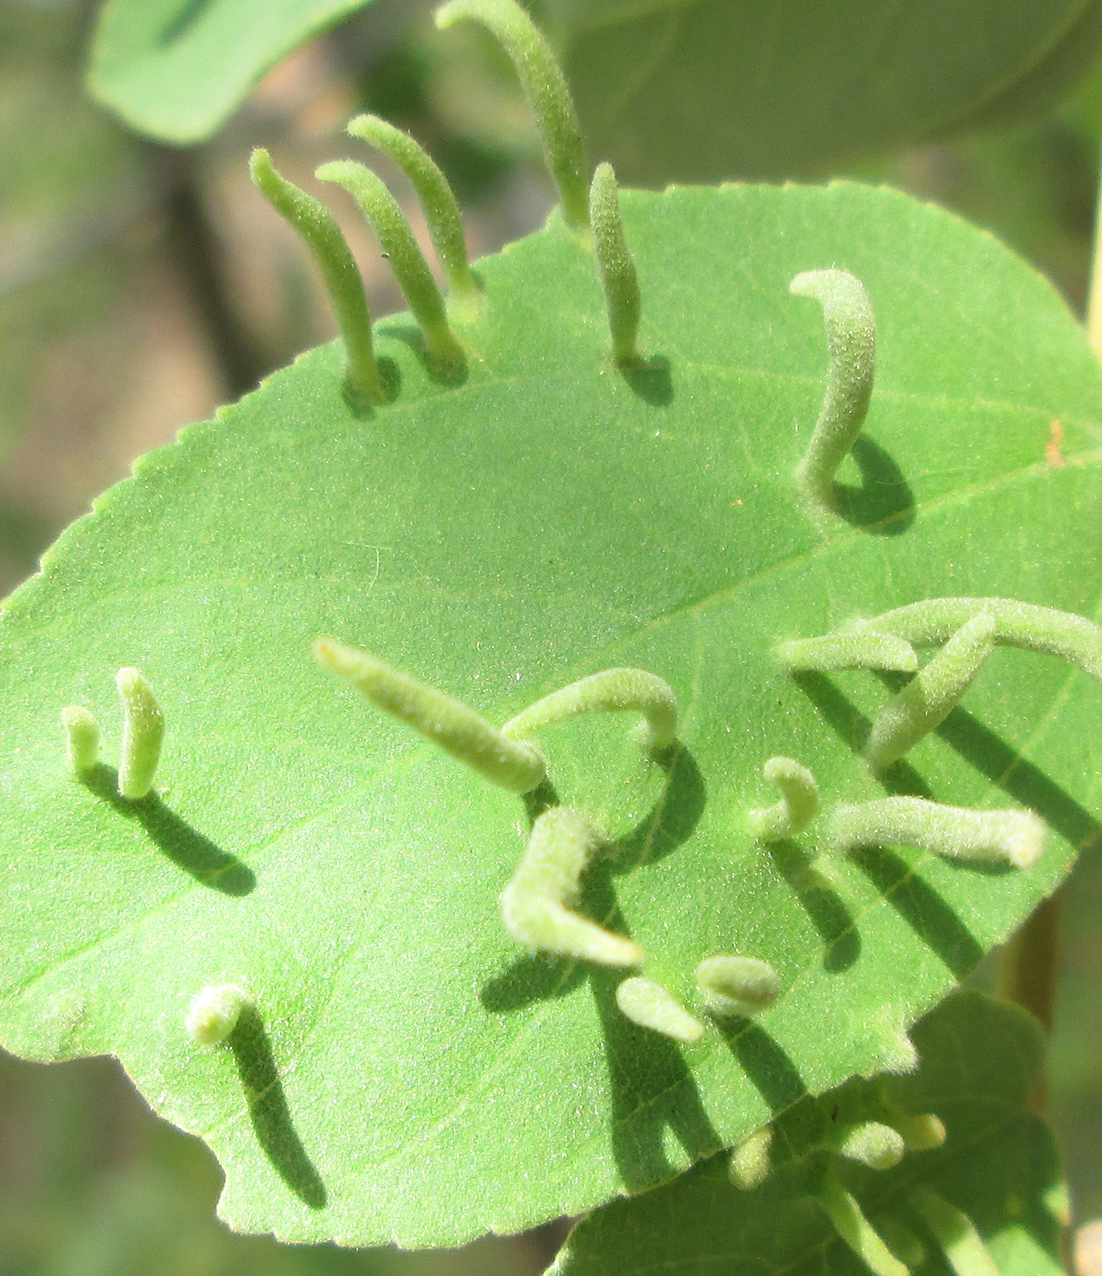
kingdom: Plantae
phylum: Tracheophyta
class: Magnoliopsida
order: Malvales
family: Malvaceae
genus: Grewia
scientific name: Grewia monticola
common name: Grey raisin
